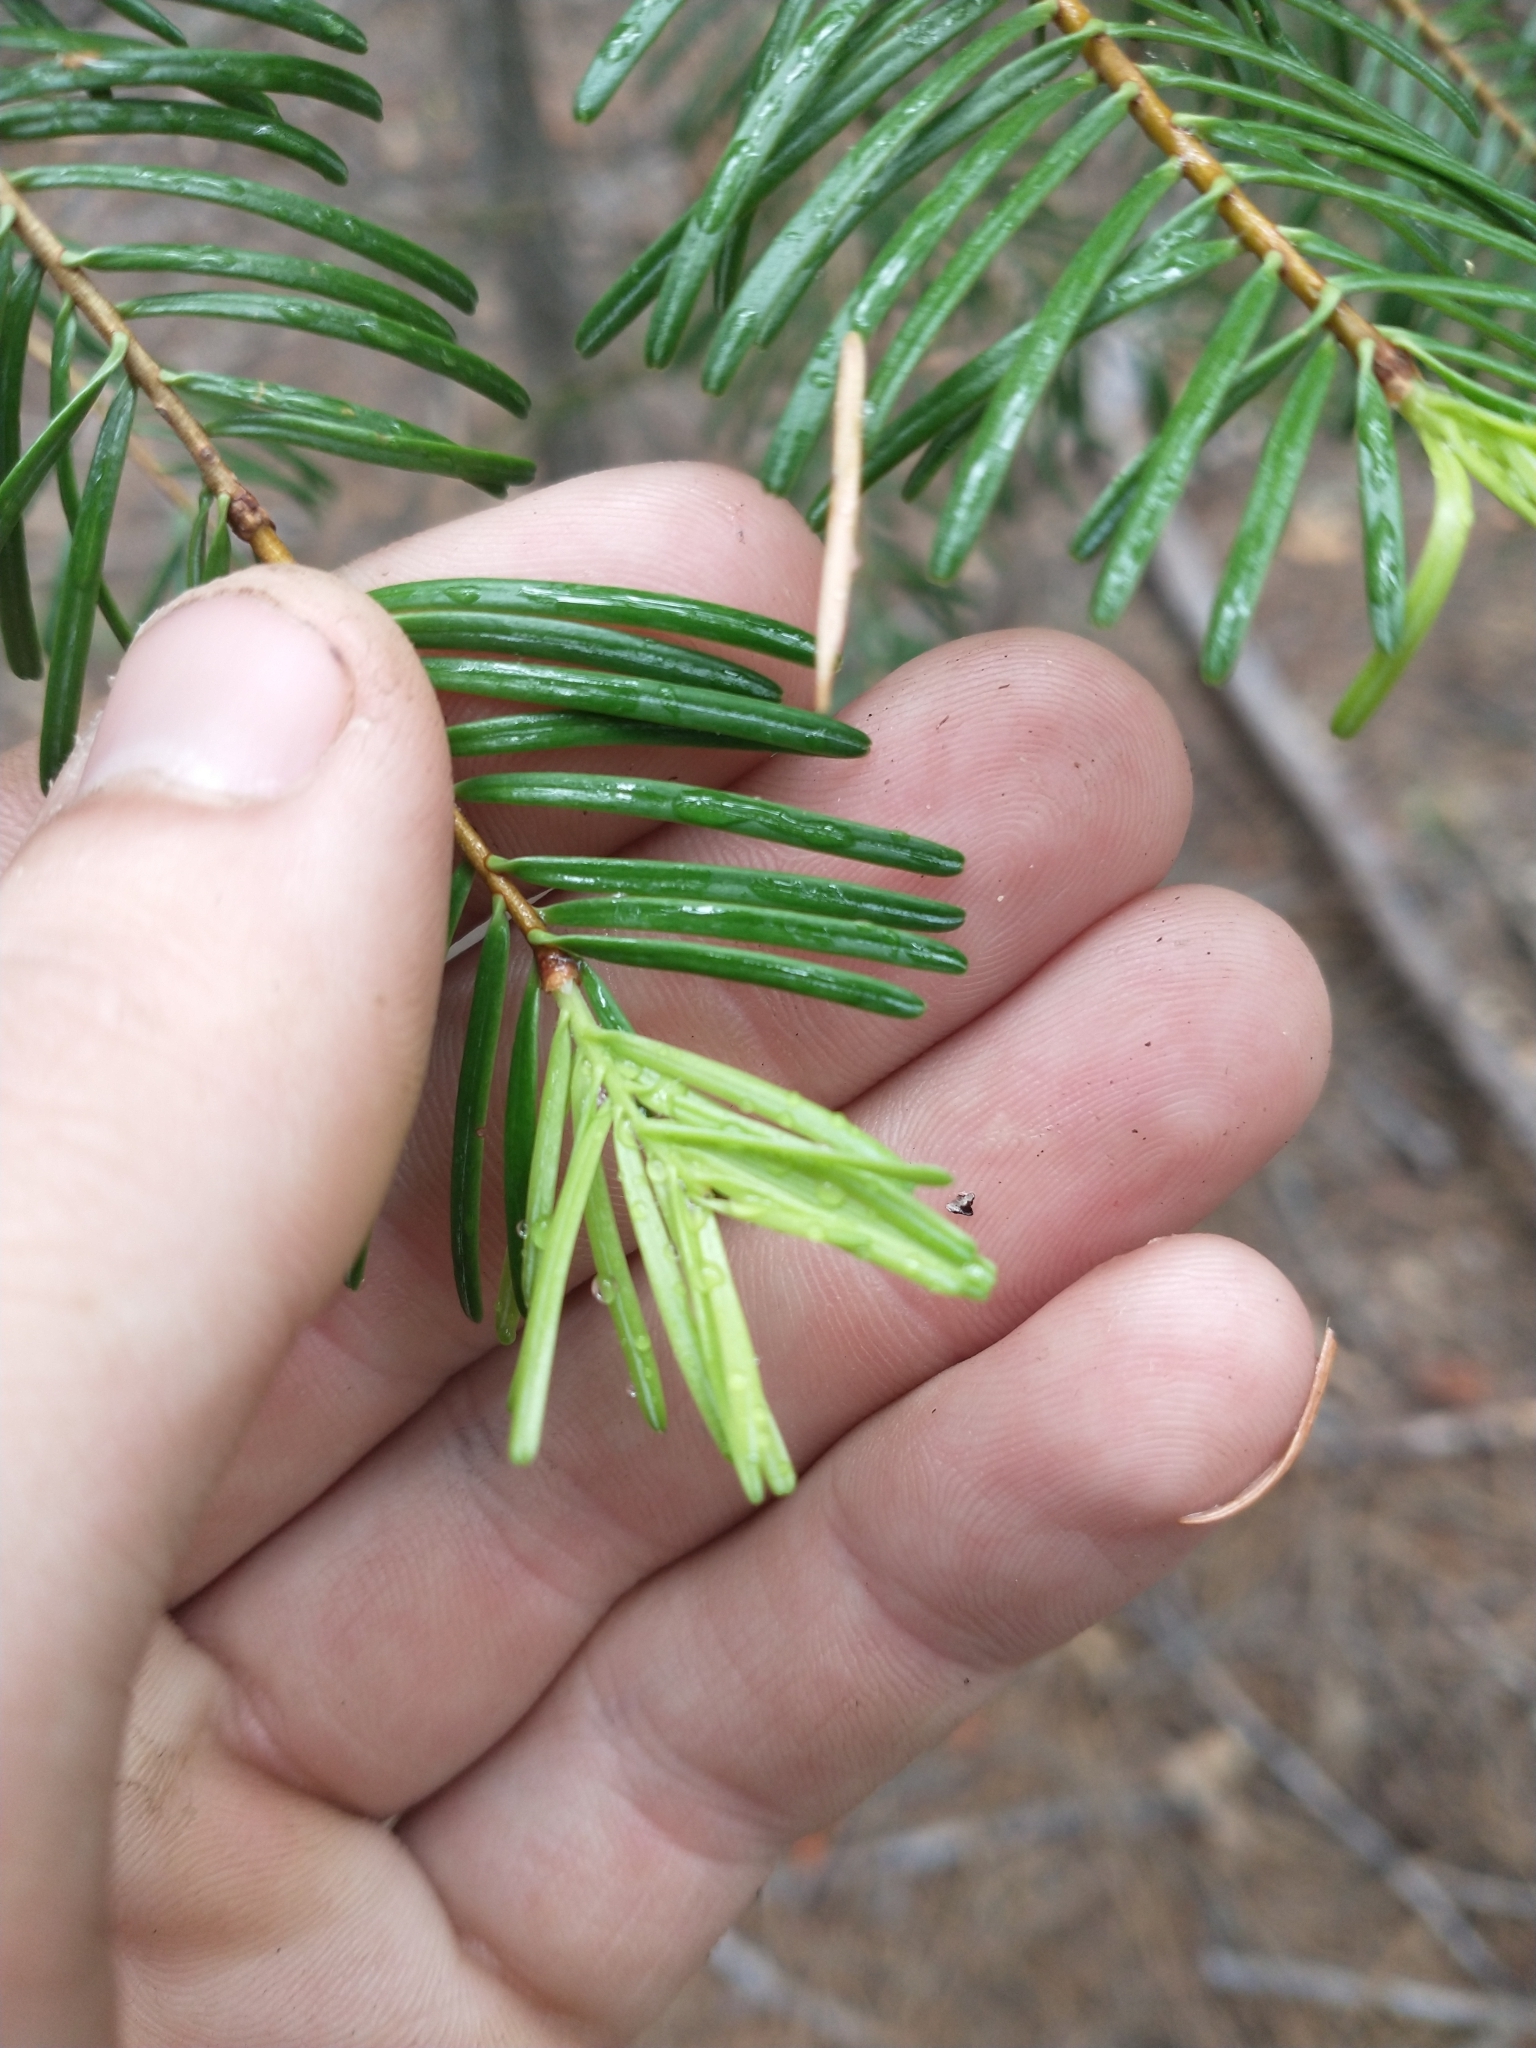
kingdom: Plantae
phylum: Tracheophyta
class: Pinopsida
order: Pinales
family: Pinaceae
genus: Abies
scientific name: Abies concolor
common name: Colorado fir
